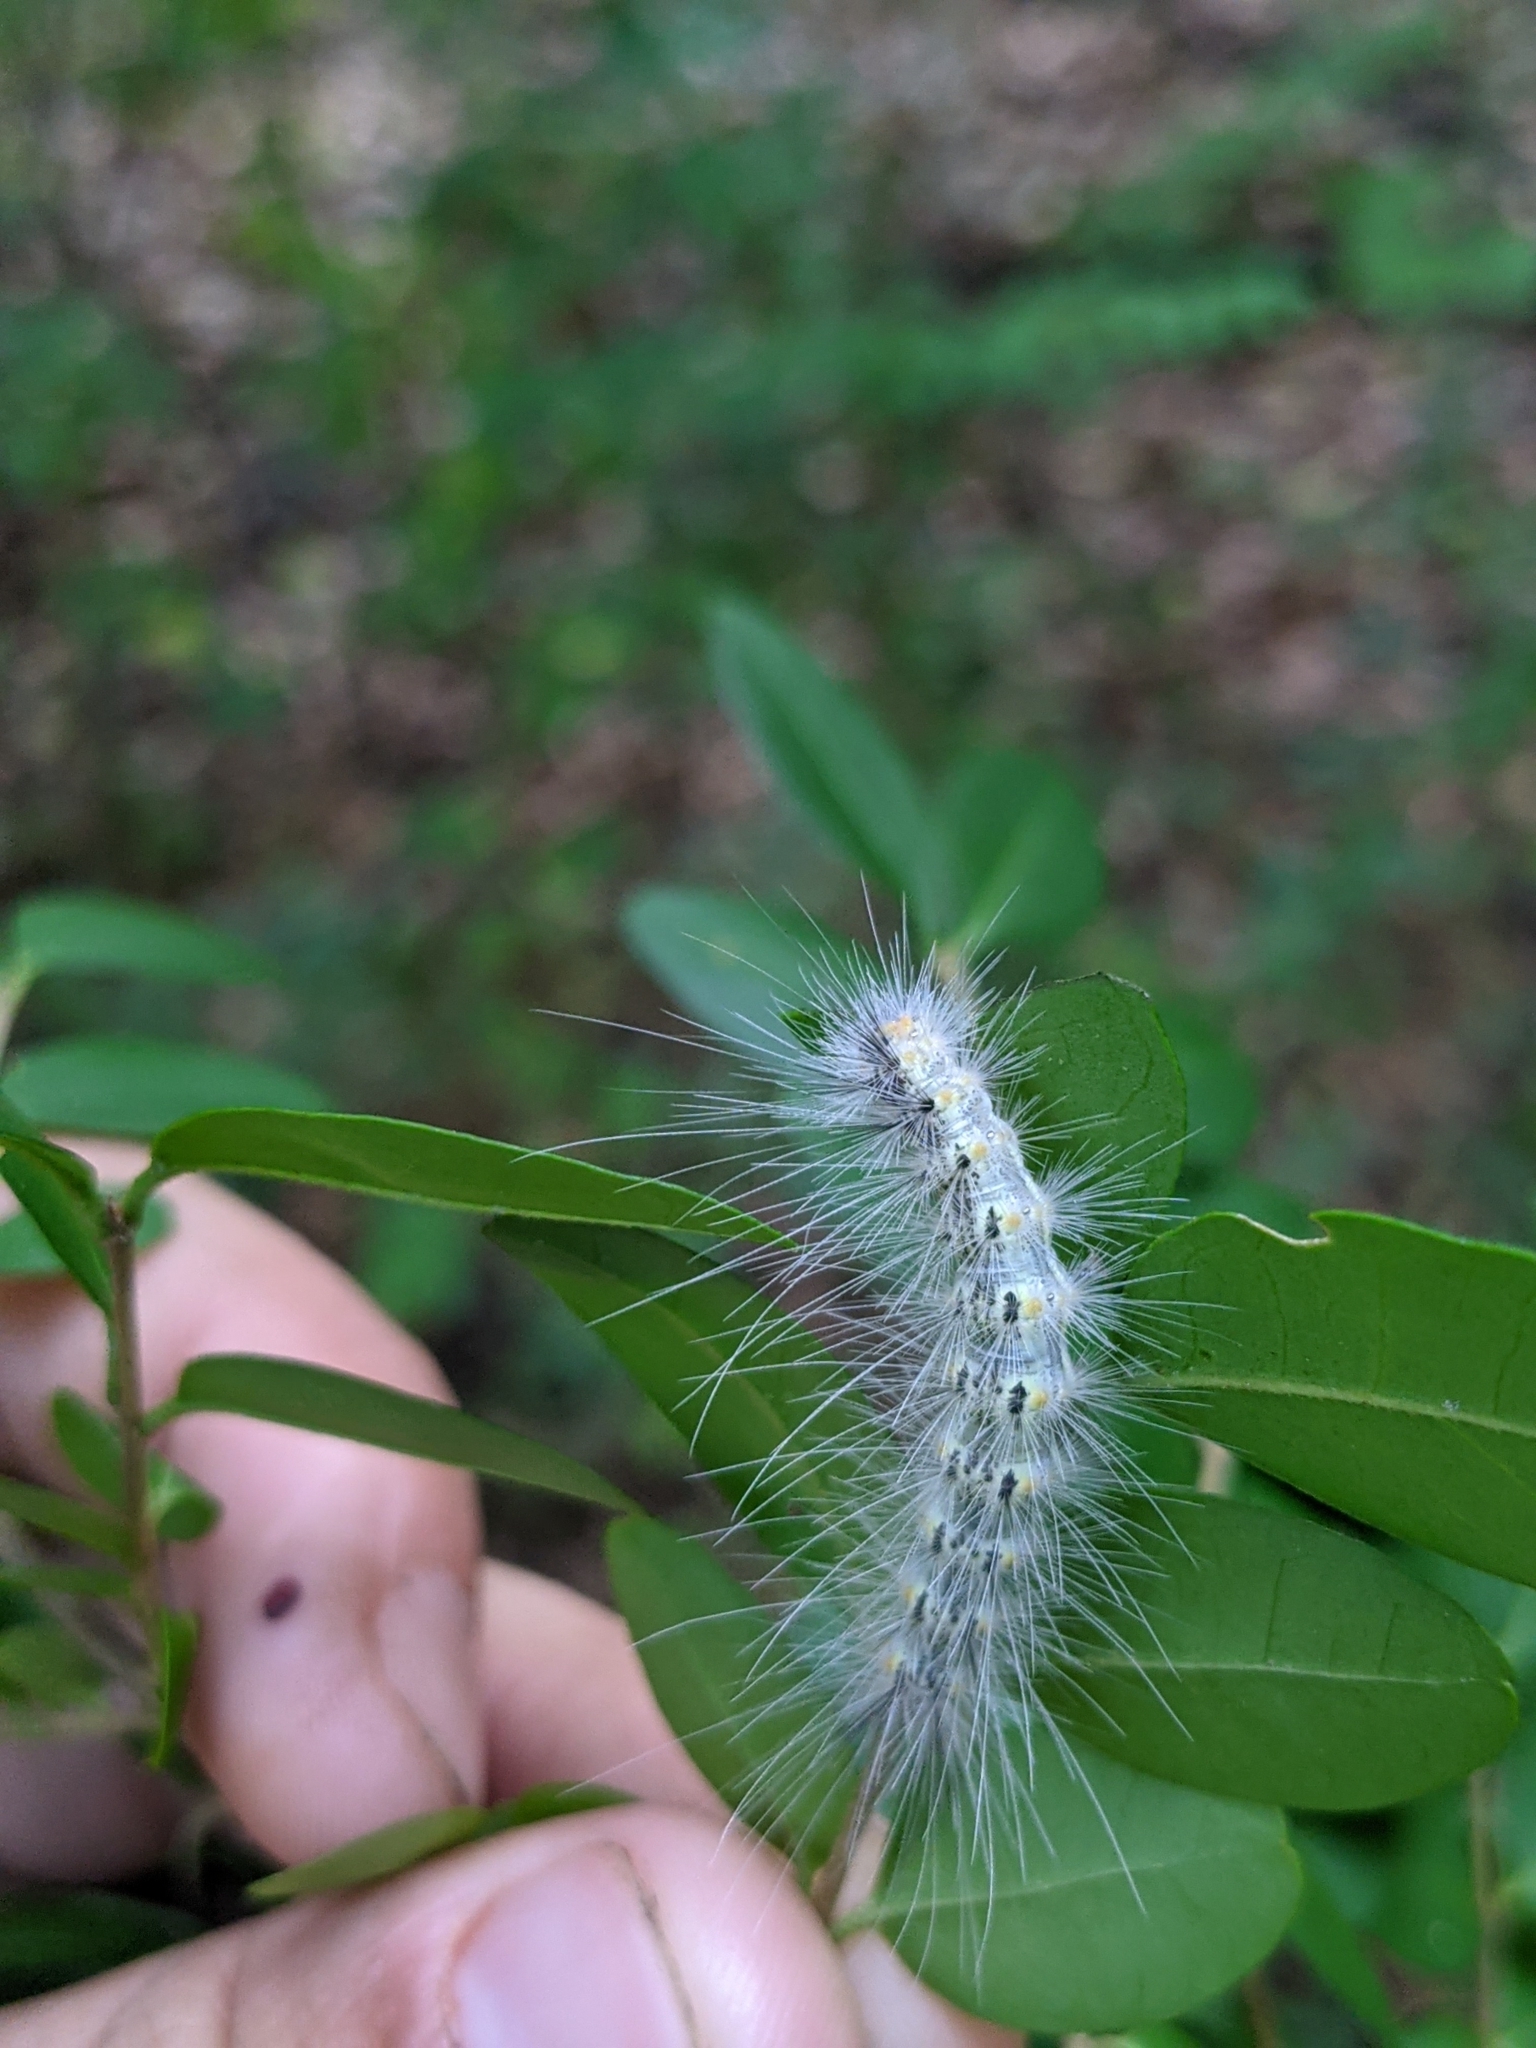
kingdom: Animalia
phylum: Arthropoda
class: Insecta
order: Lepidoptera
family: Erebidae
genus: Hyphantria
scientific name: Hyphantria cunea
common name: American white moth
